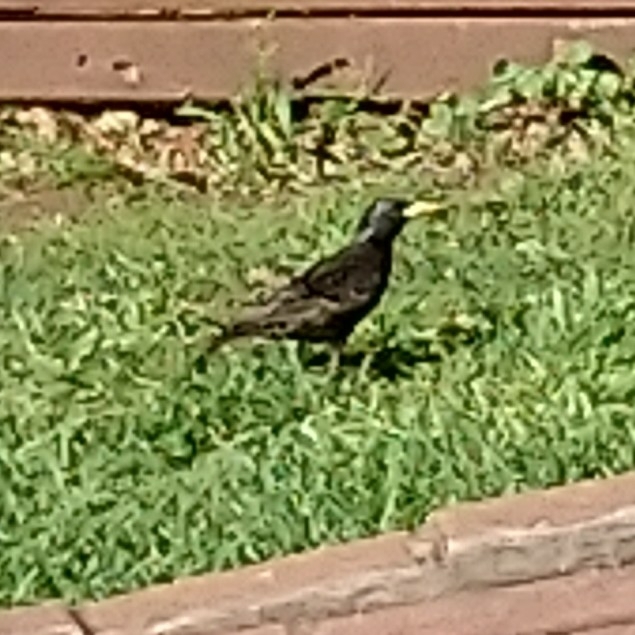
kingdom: Animalia
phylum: Chordata
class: Aves
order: Passeriformes
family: Sturnidae
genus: Sturnus
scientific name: Sturnus vulgaris
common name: Common starling
